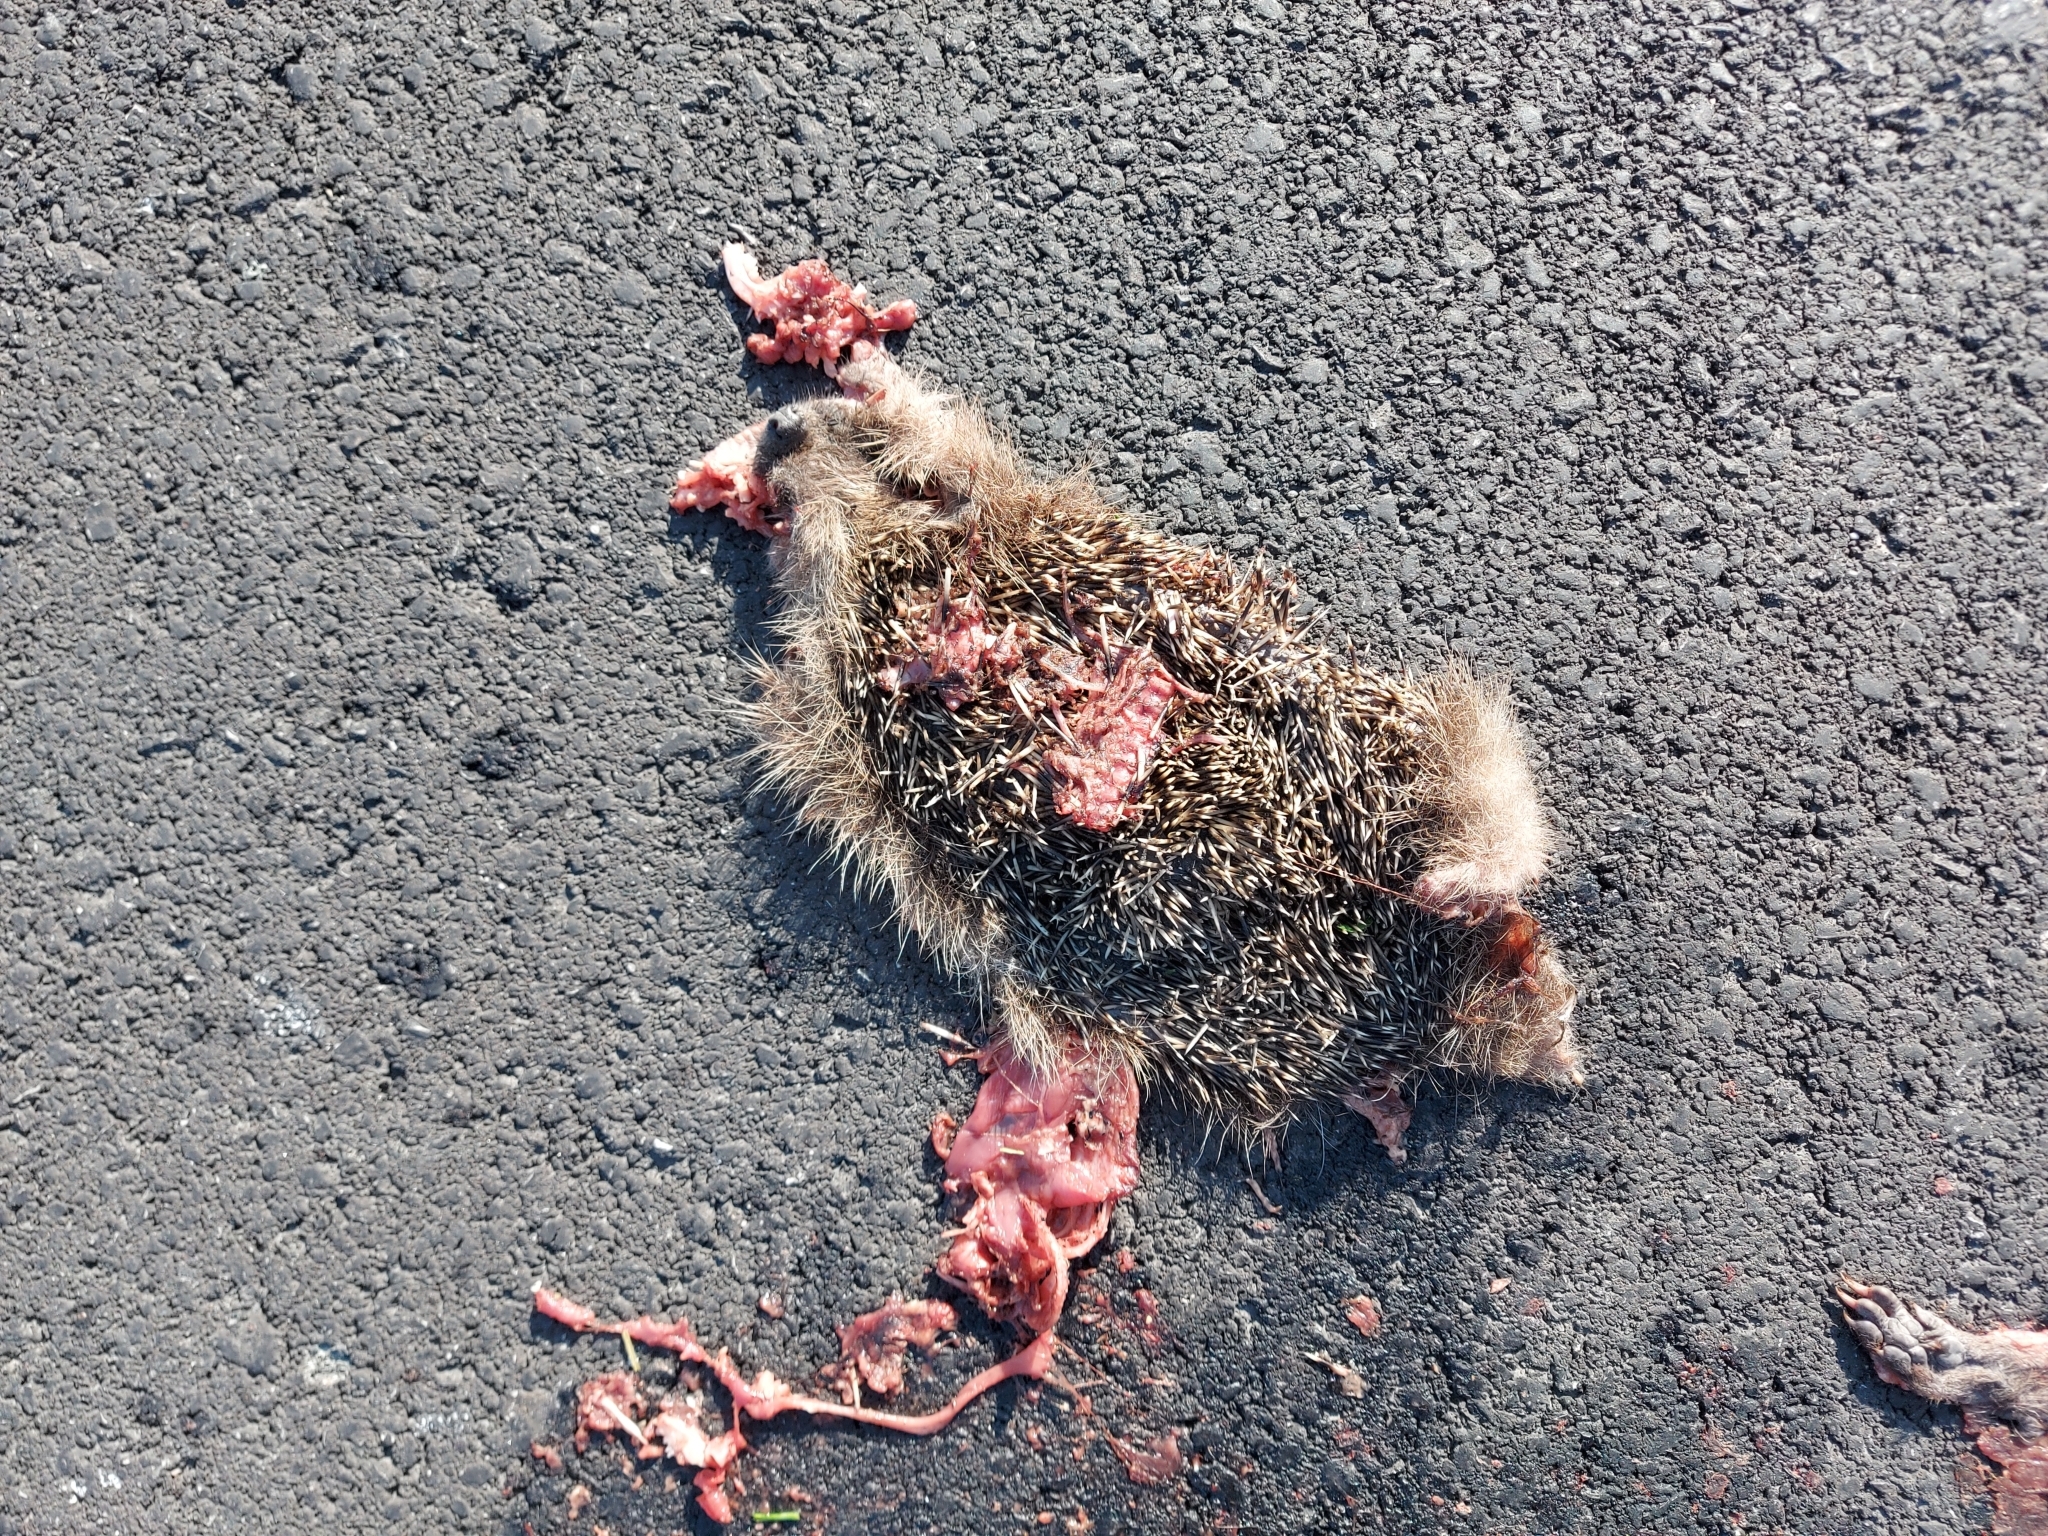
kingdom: Animalia
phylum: Chordata
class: Mammalia
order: Erinaceomorpha
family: Erinaceidae
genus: Erinaceus
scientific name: Erinaceus europaeus
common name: West european hedgehog
